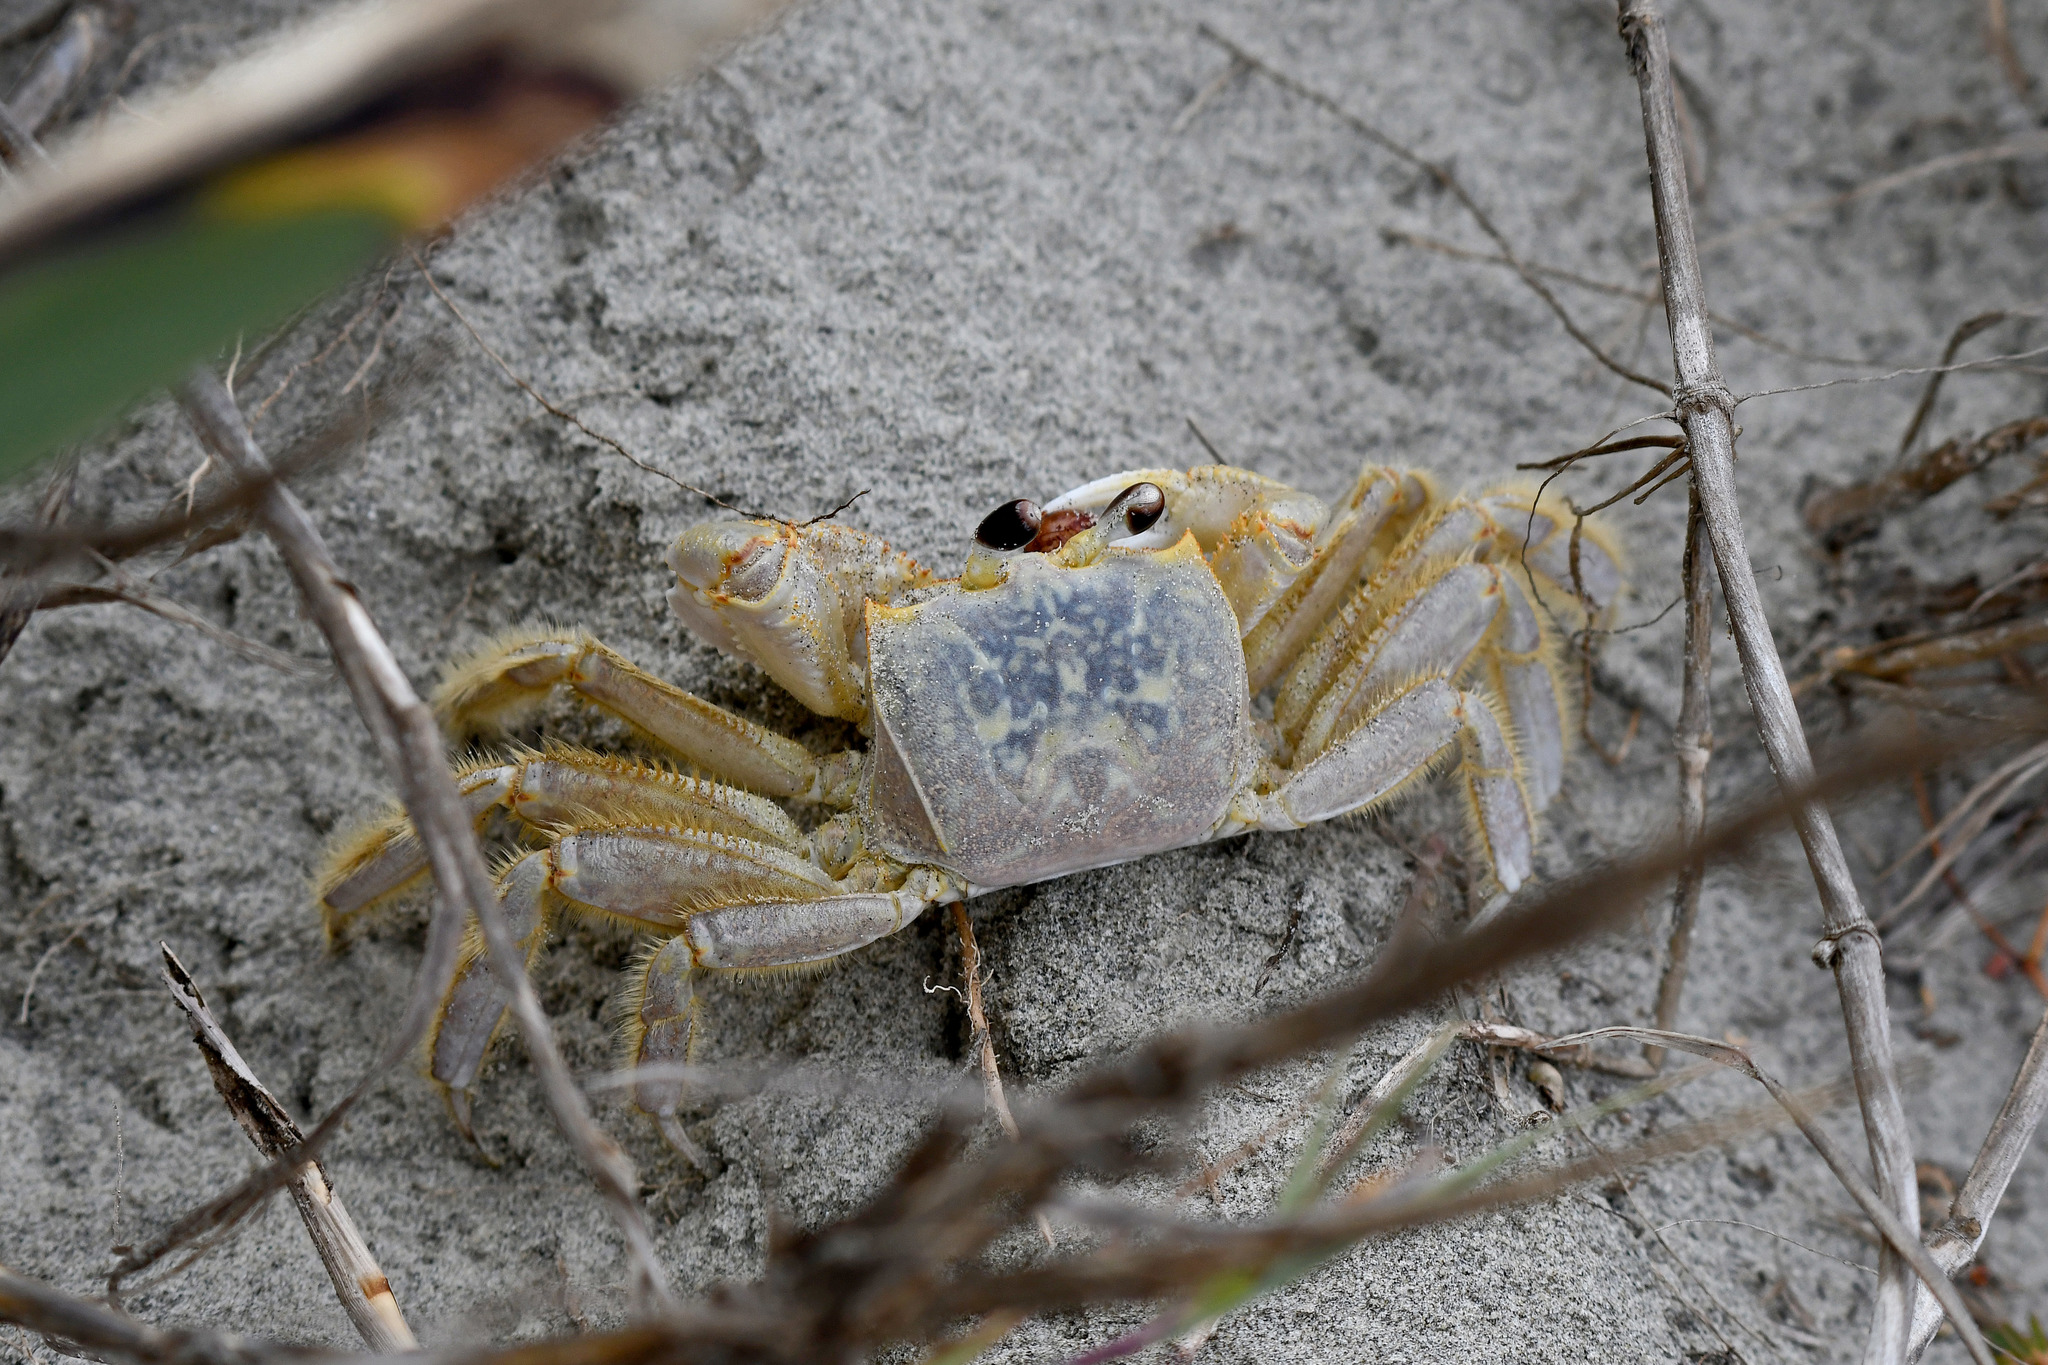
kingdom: Animalia
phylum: Arthropoda
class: Malacostraca
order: Decapoda
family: Ocypodidae
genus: Ocypode
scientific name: Ocypode quadrata
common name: Ghost crab
